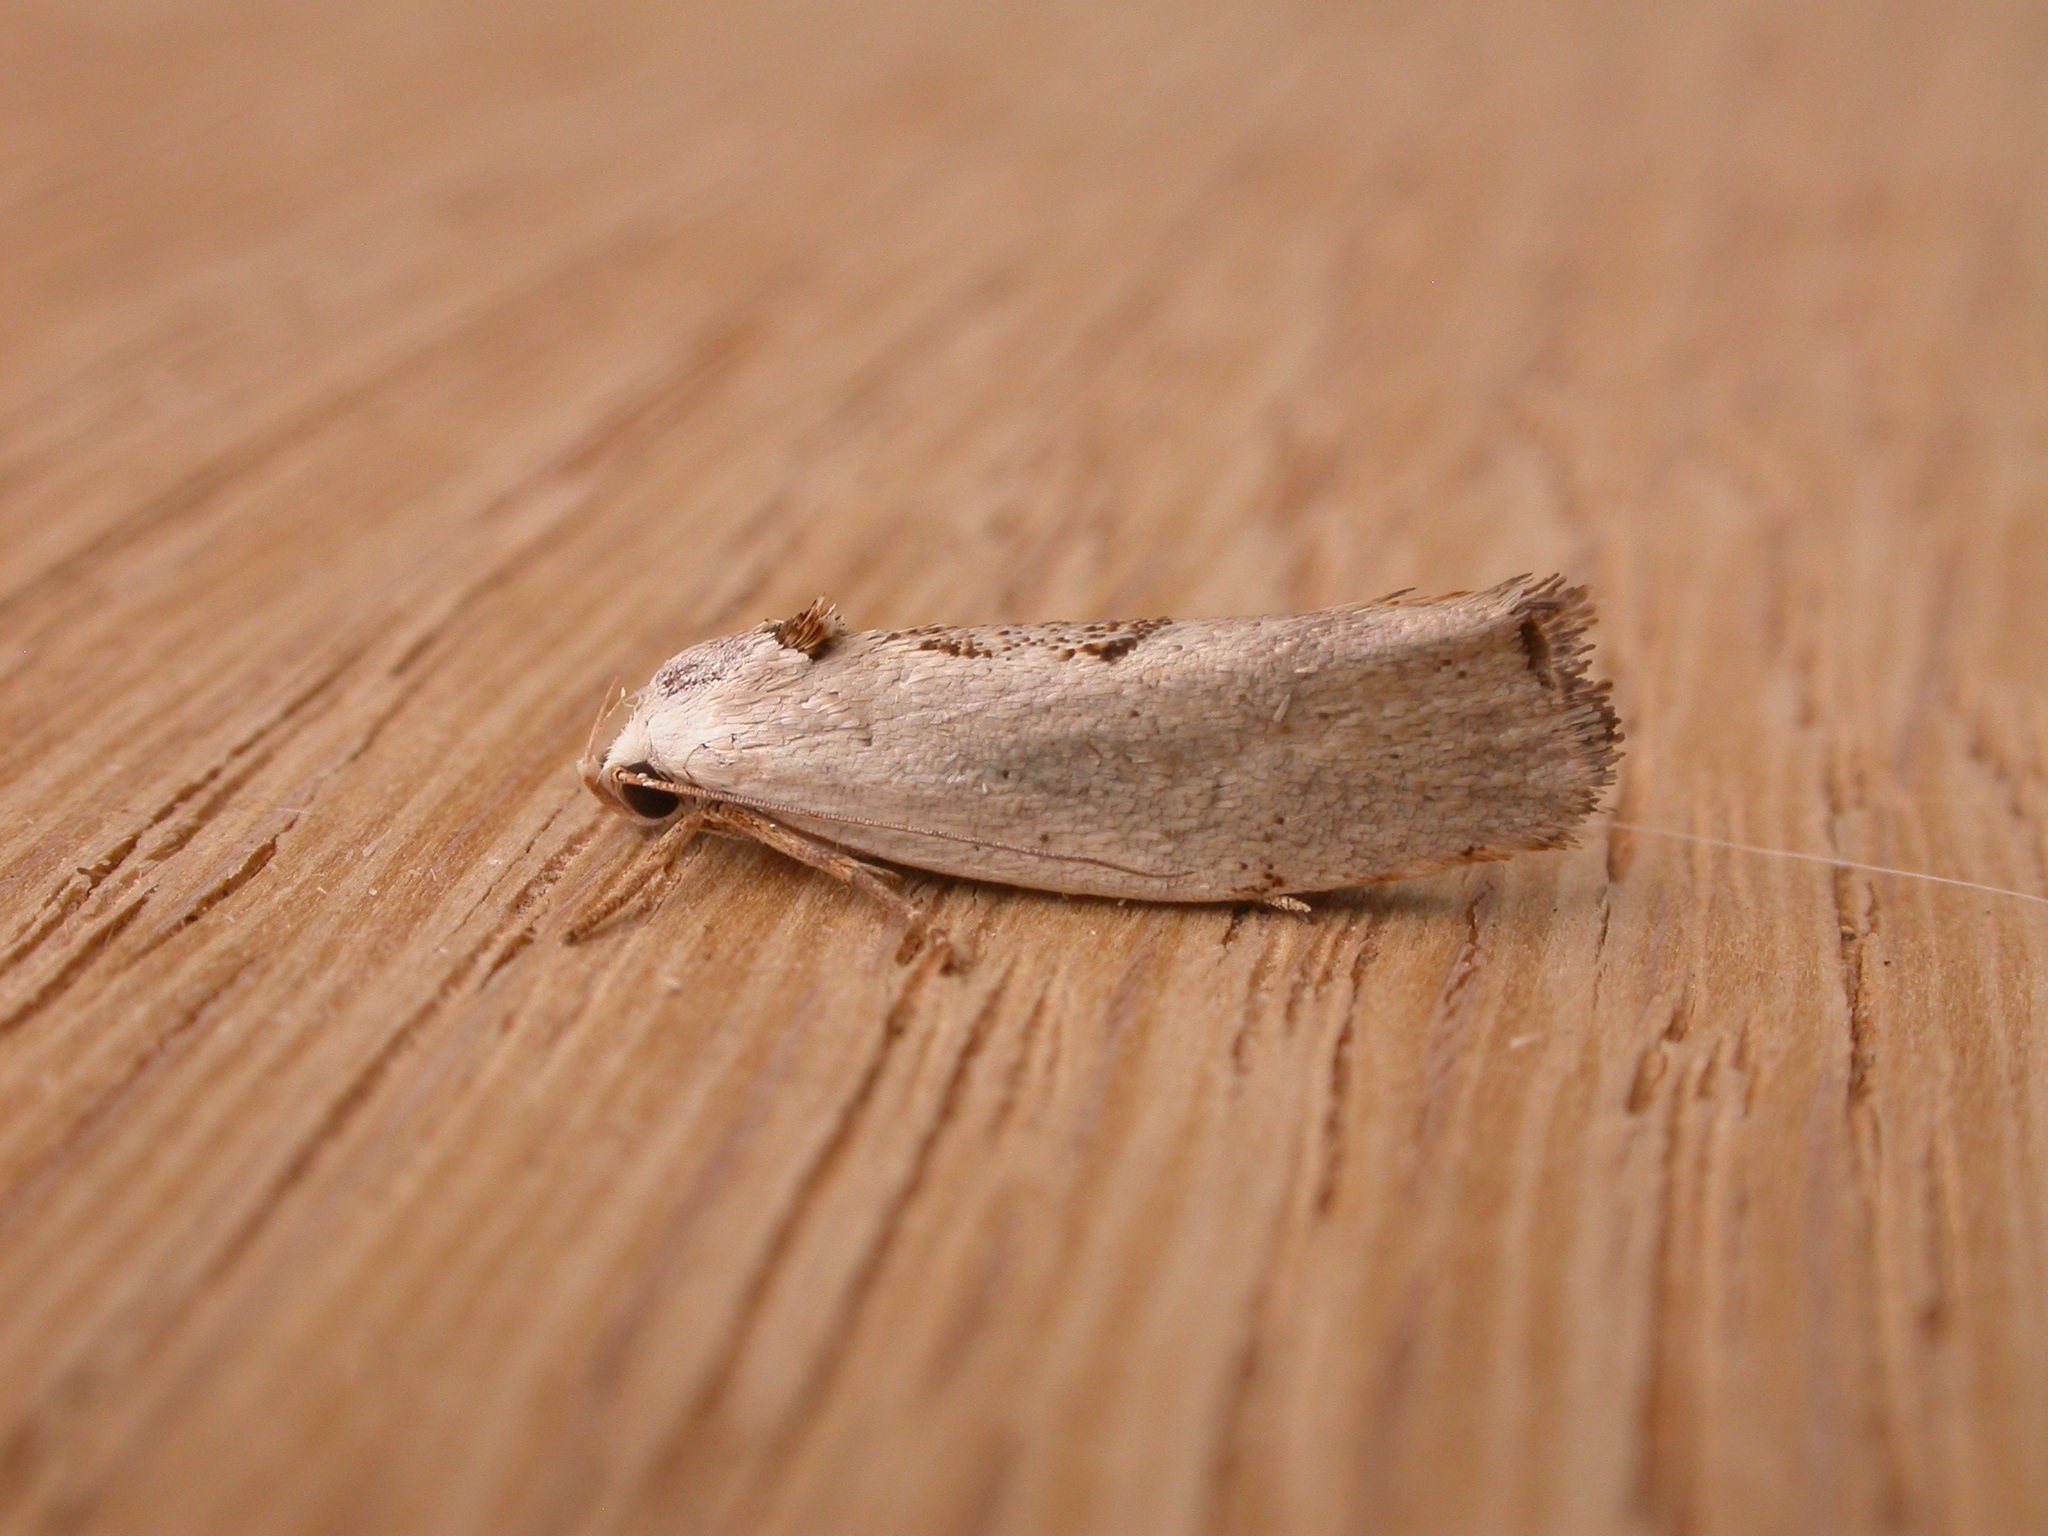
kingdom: Animalia
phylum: Arthropoda
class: Insecta
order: Lepidoptera
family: Xyloryctidae
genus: Tymbophora
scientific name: Tymbophora peltastis
